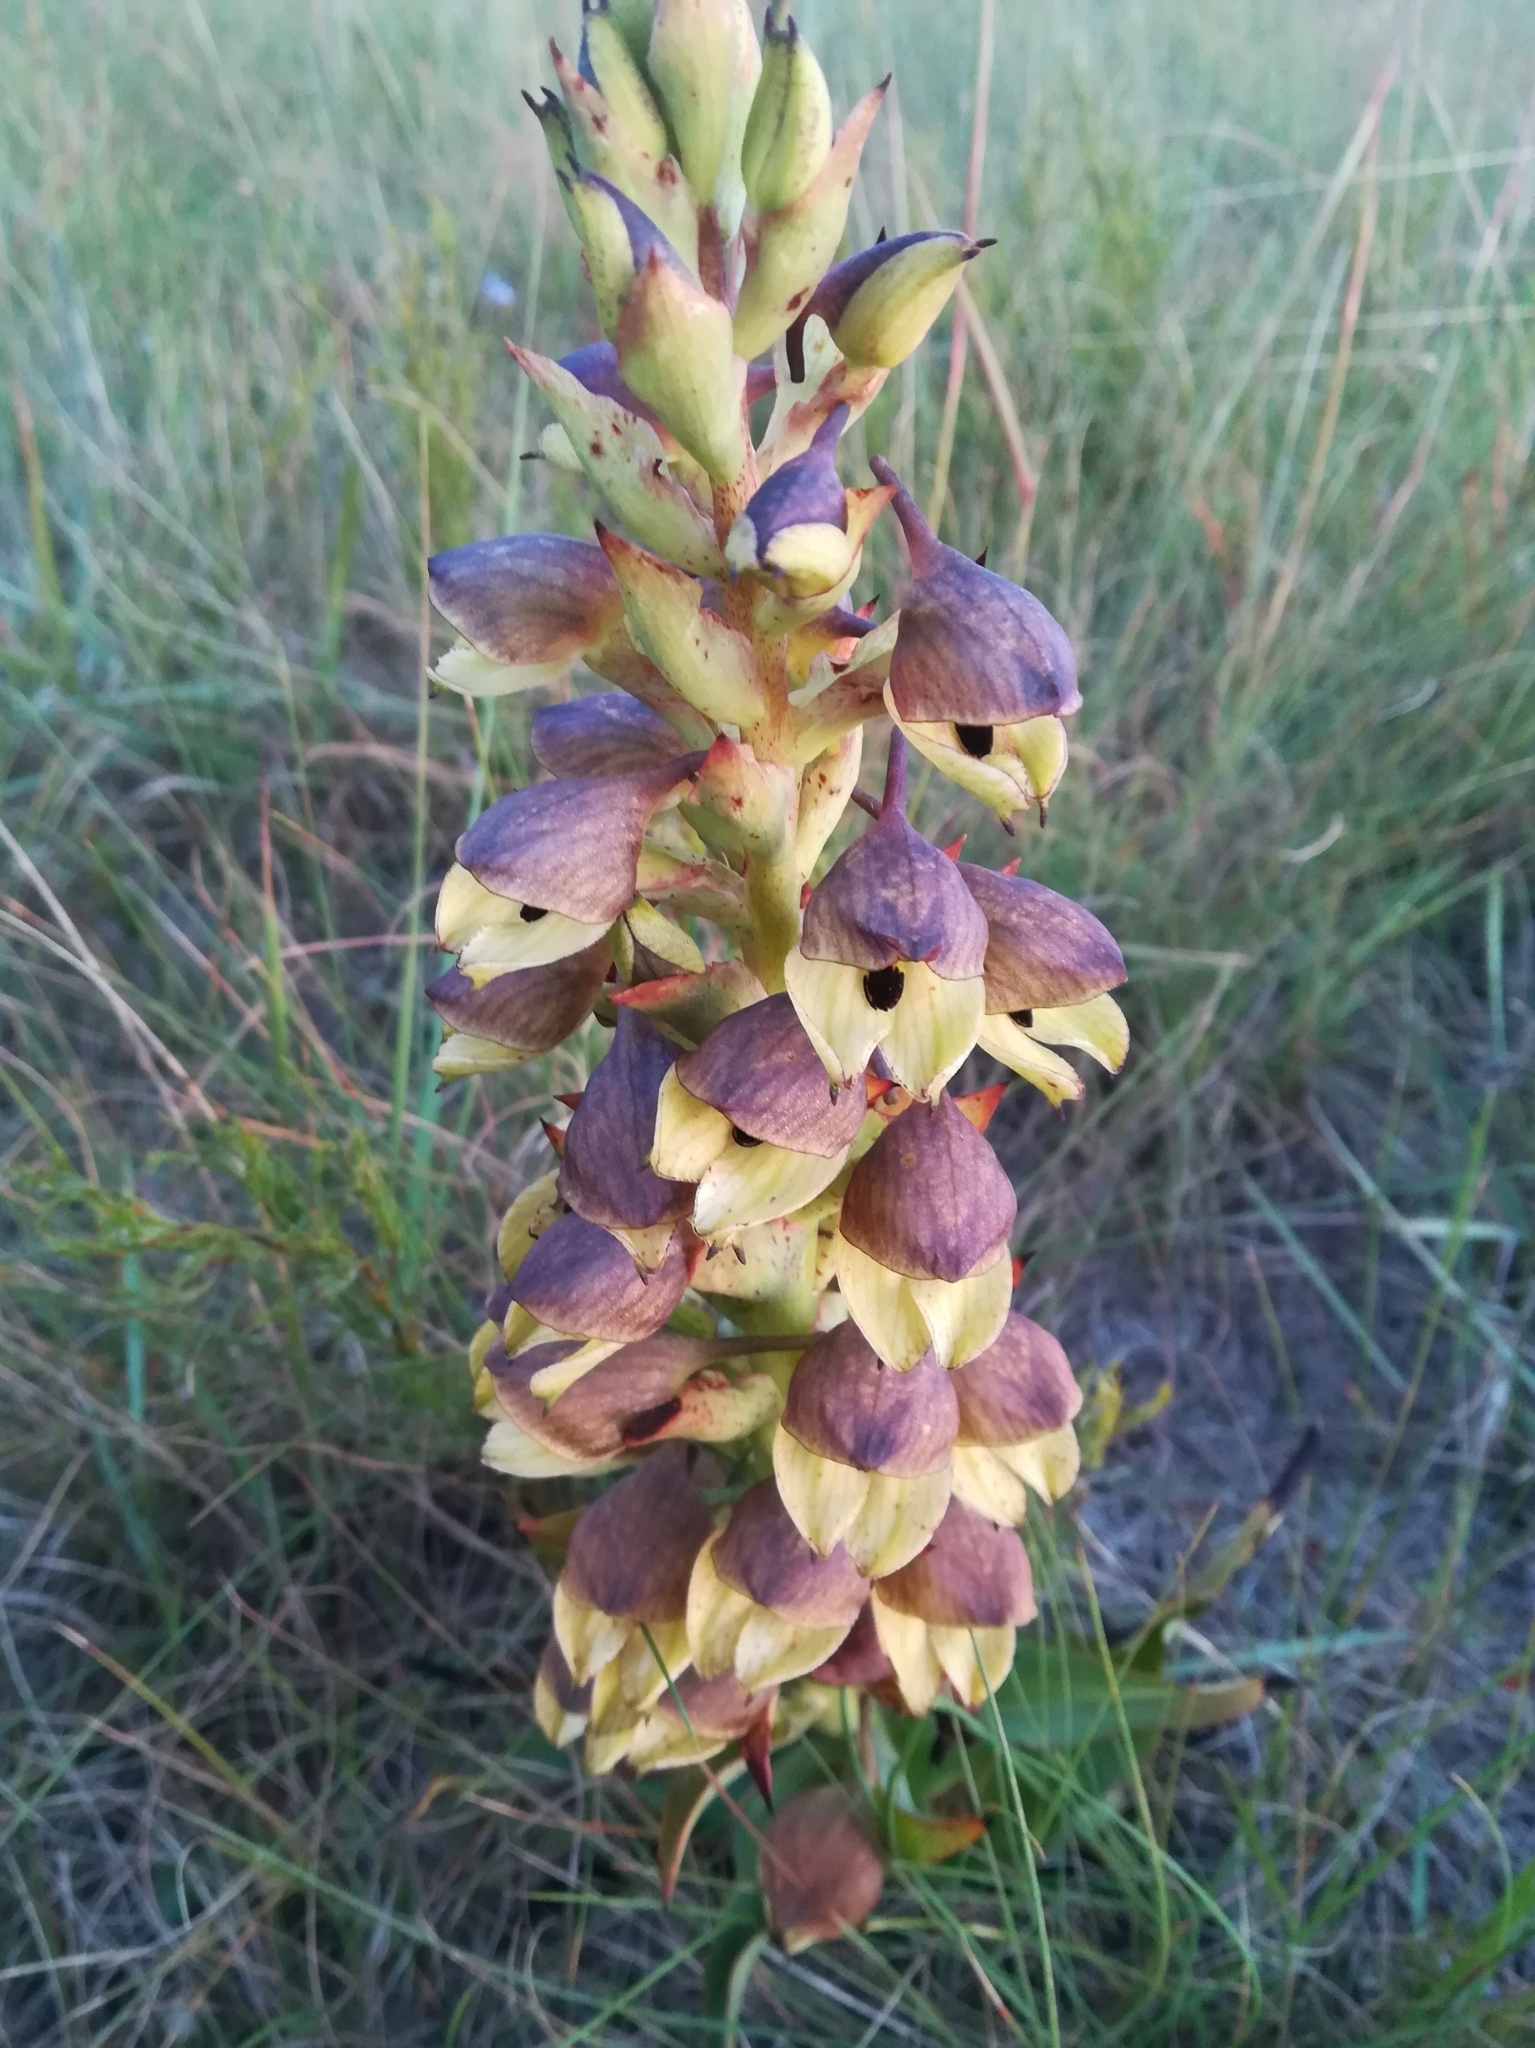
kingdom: Plantae
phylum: Tracheophyta
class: Liliopsida
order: Asparagales
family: Orchidaceae
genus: Disa
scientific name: Disa cornuta
